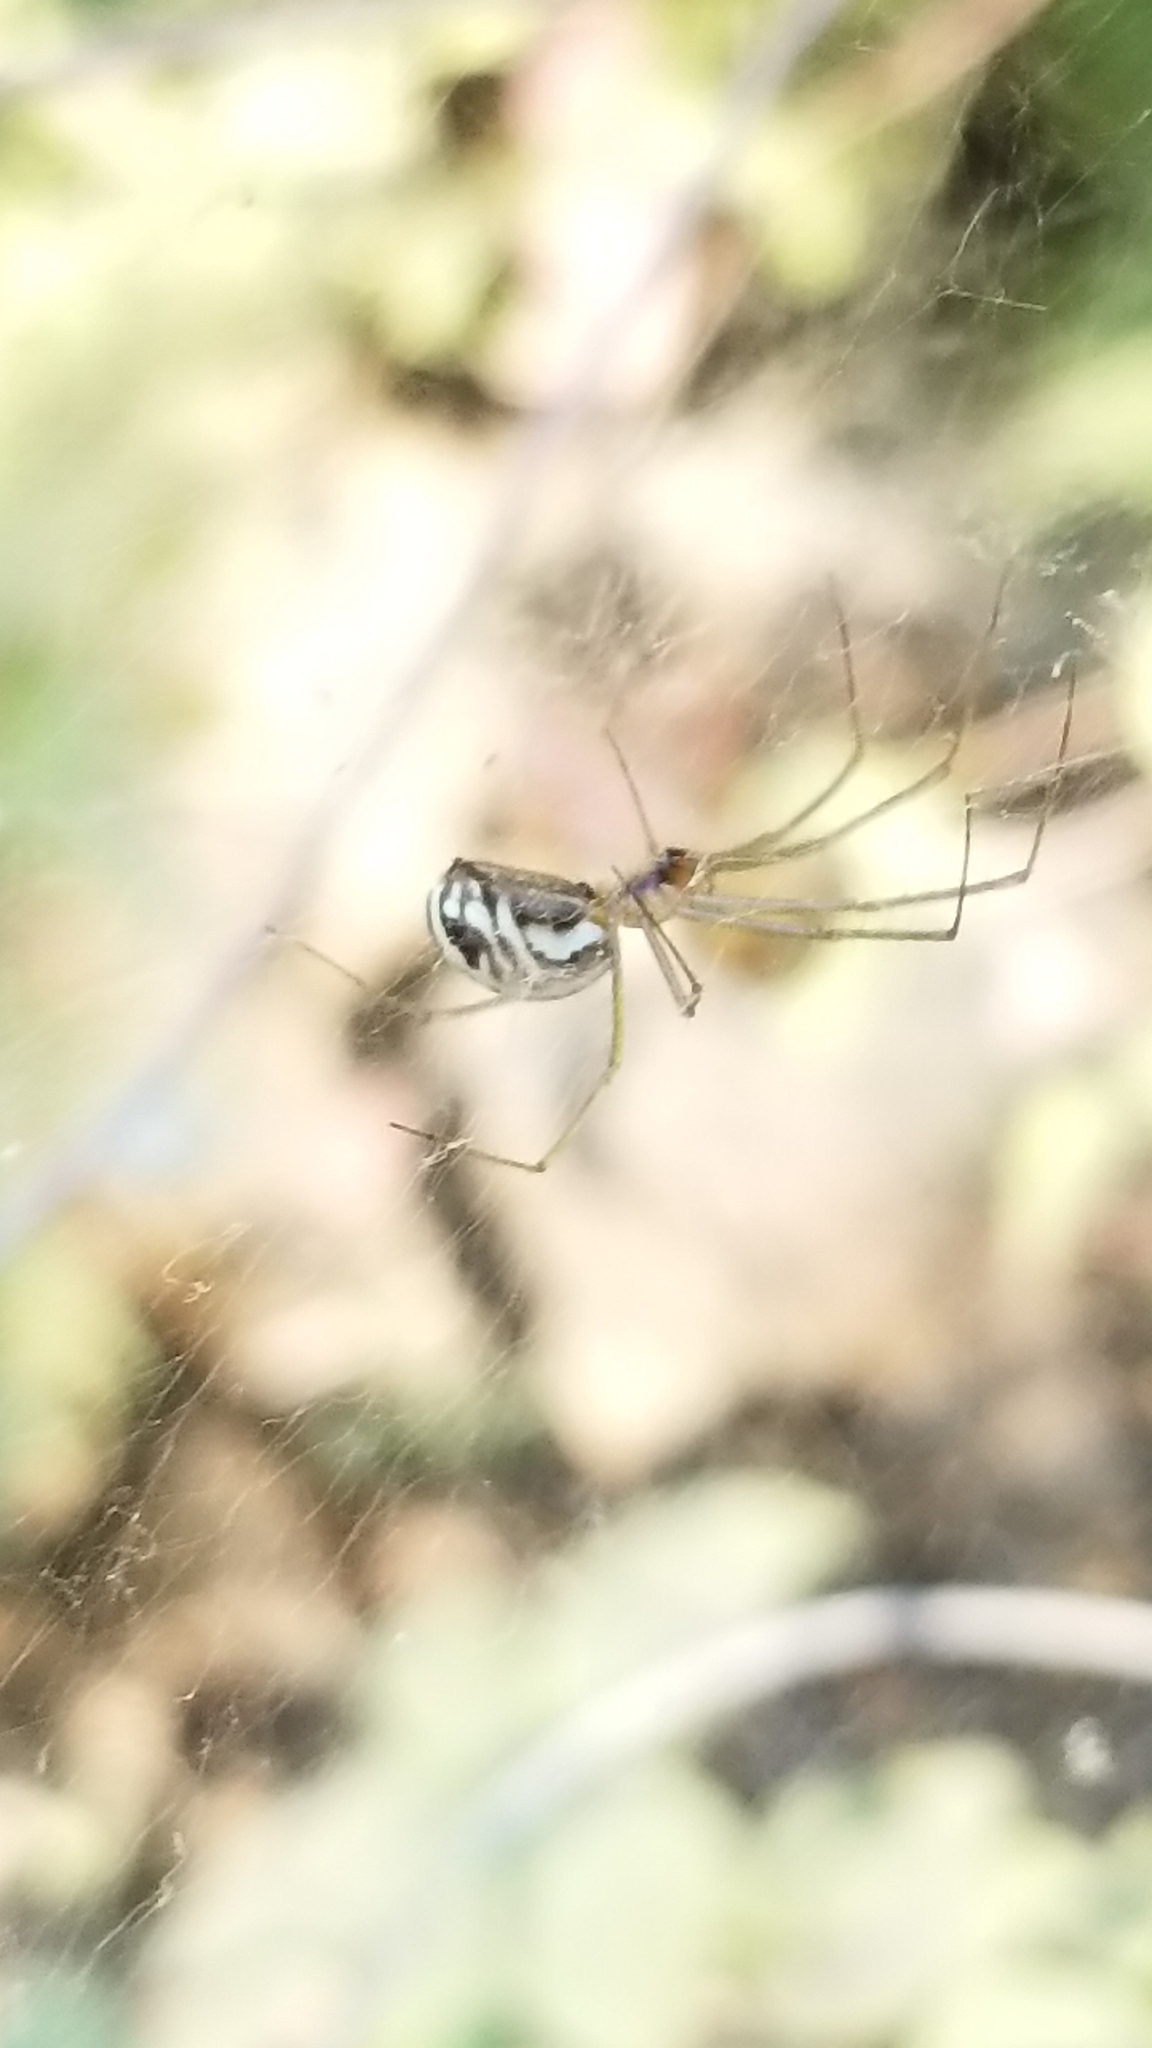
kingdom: Animalia
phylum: Arthropoda
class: Arachnida
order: Araneae
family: Linyphiidae
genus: Neriene
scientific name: Neriene litigiosa
